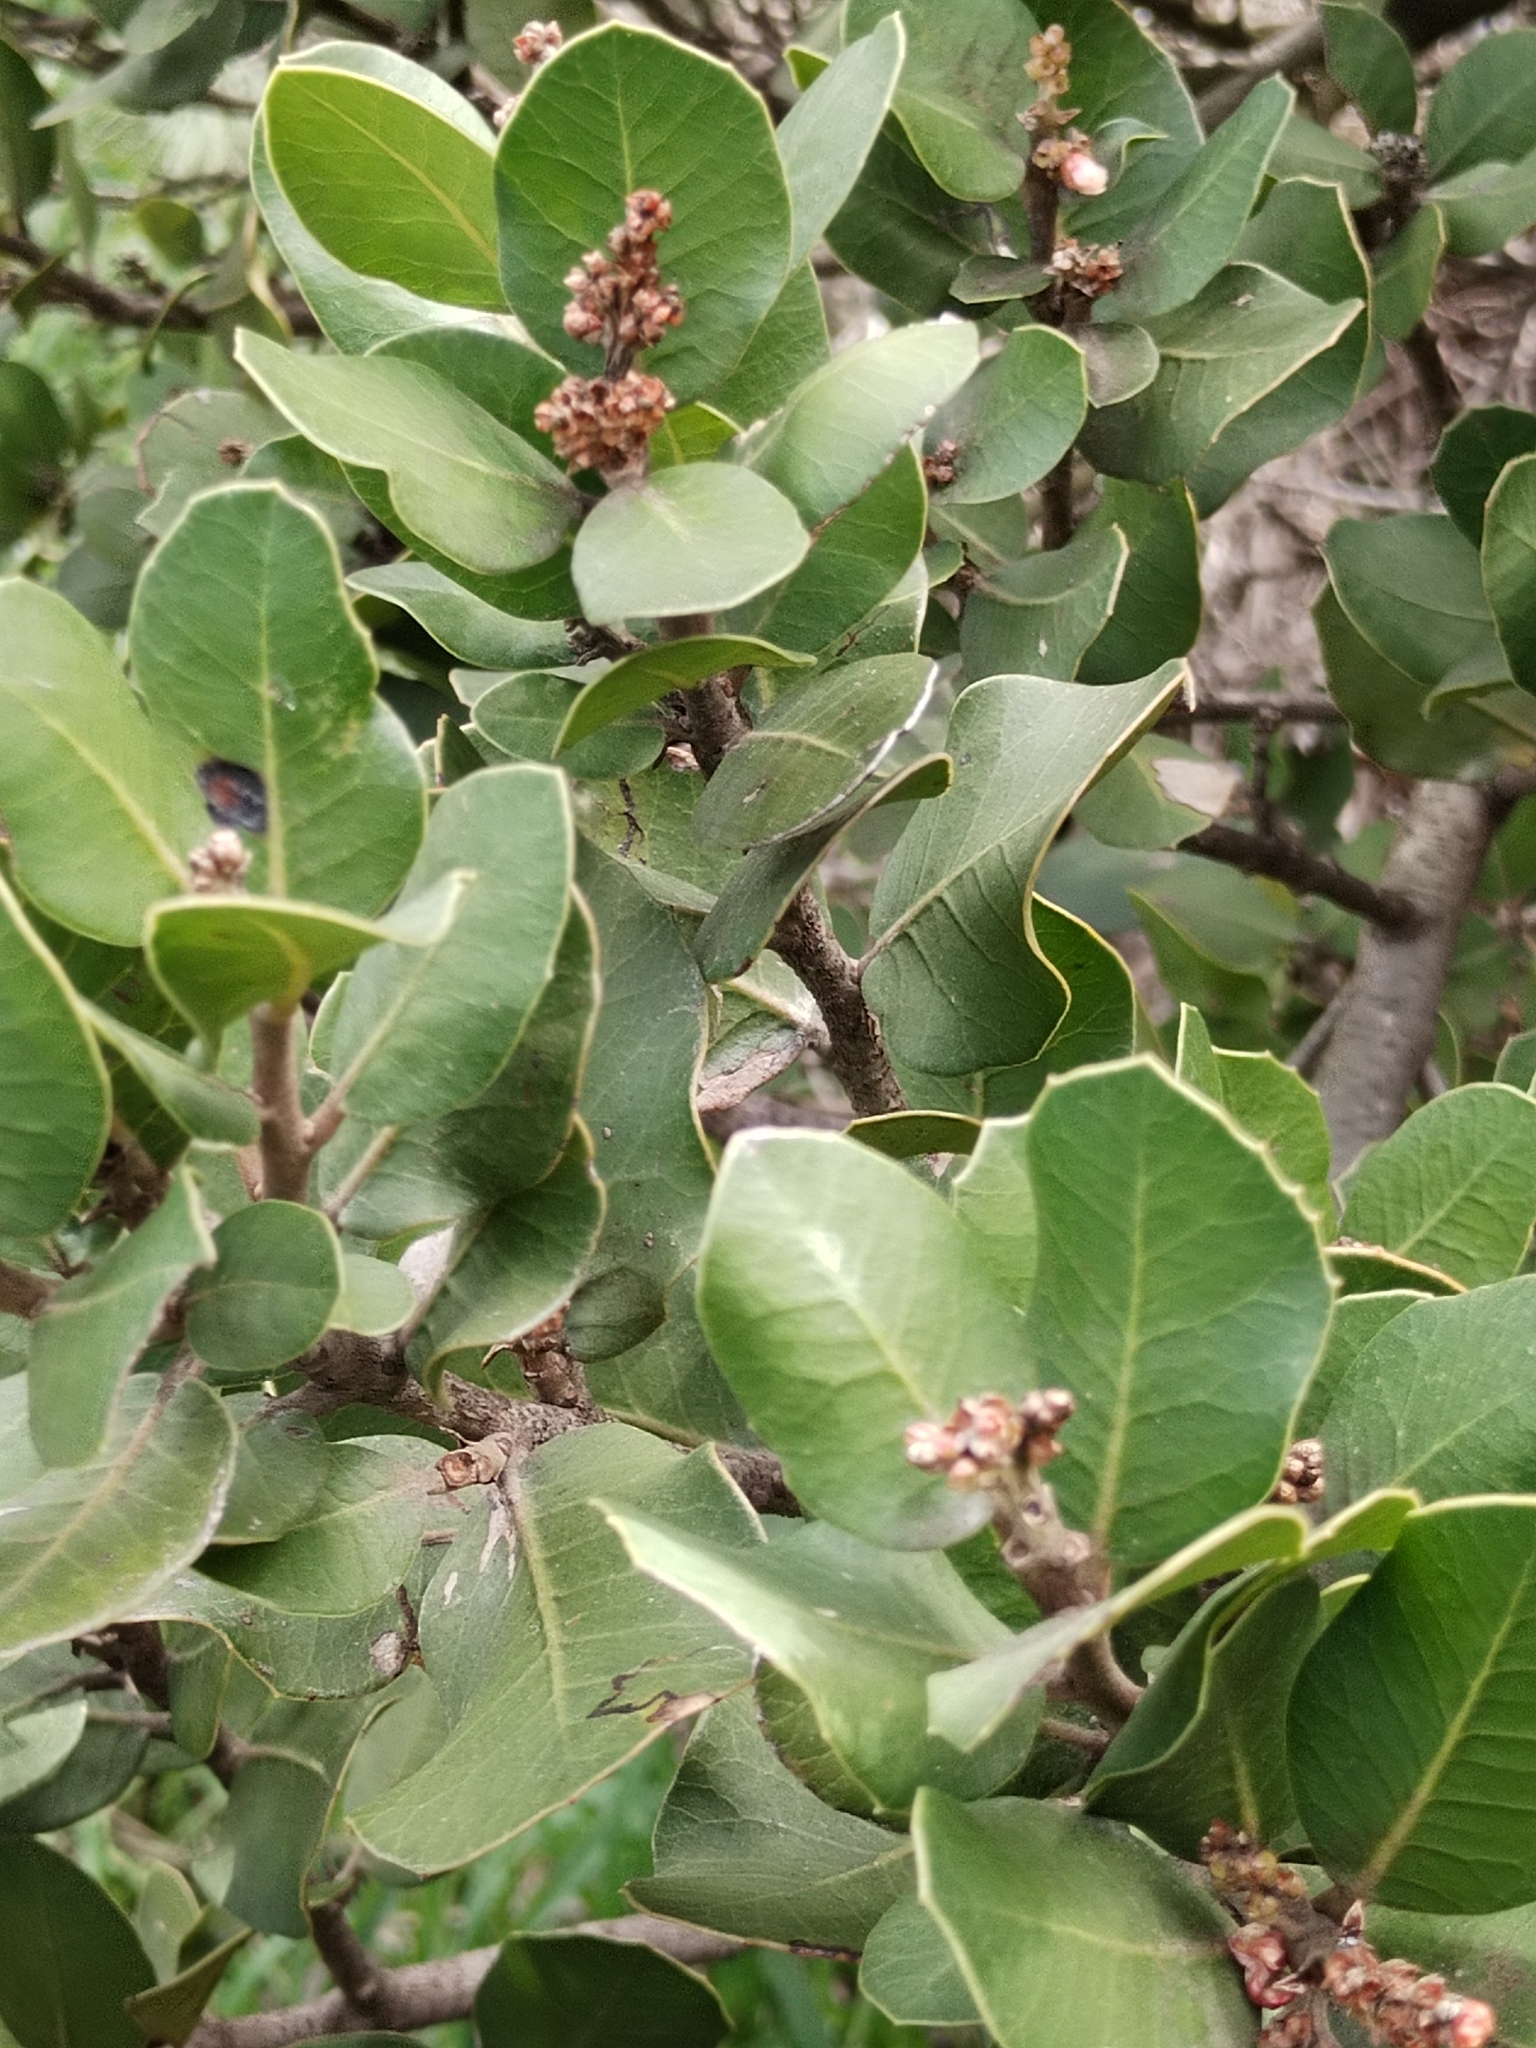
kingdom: Plantae
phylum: Tracheophyta
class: Magnoliopsida
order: Sapindales
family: Anacardiaceae
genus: Rhus
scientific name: Rhus integrifolia
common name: Lemonade sumac
